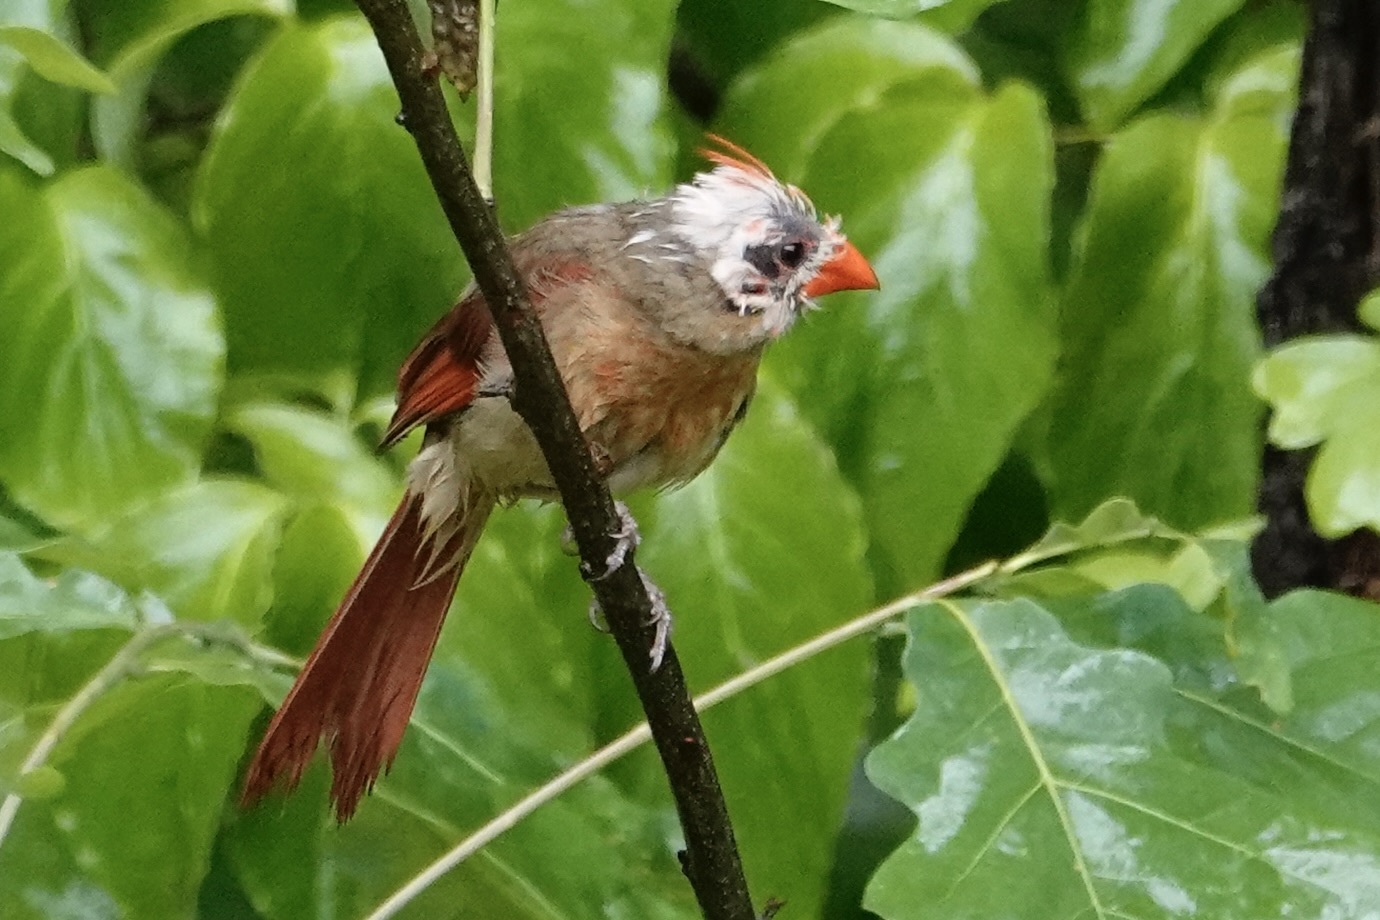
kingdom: Animalia
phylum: Chordata
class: Aves
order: Passeriformes
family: Cardinalidae
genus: Cardinalis
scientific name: Cardinalis cardinalis
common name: Northern cardinal
